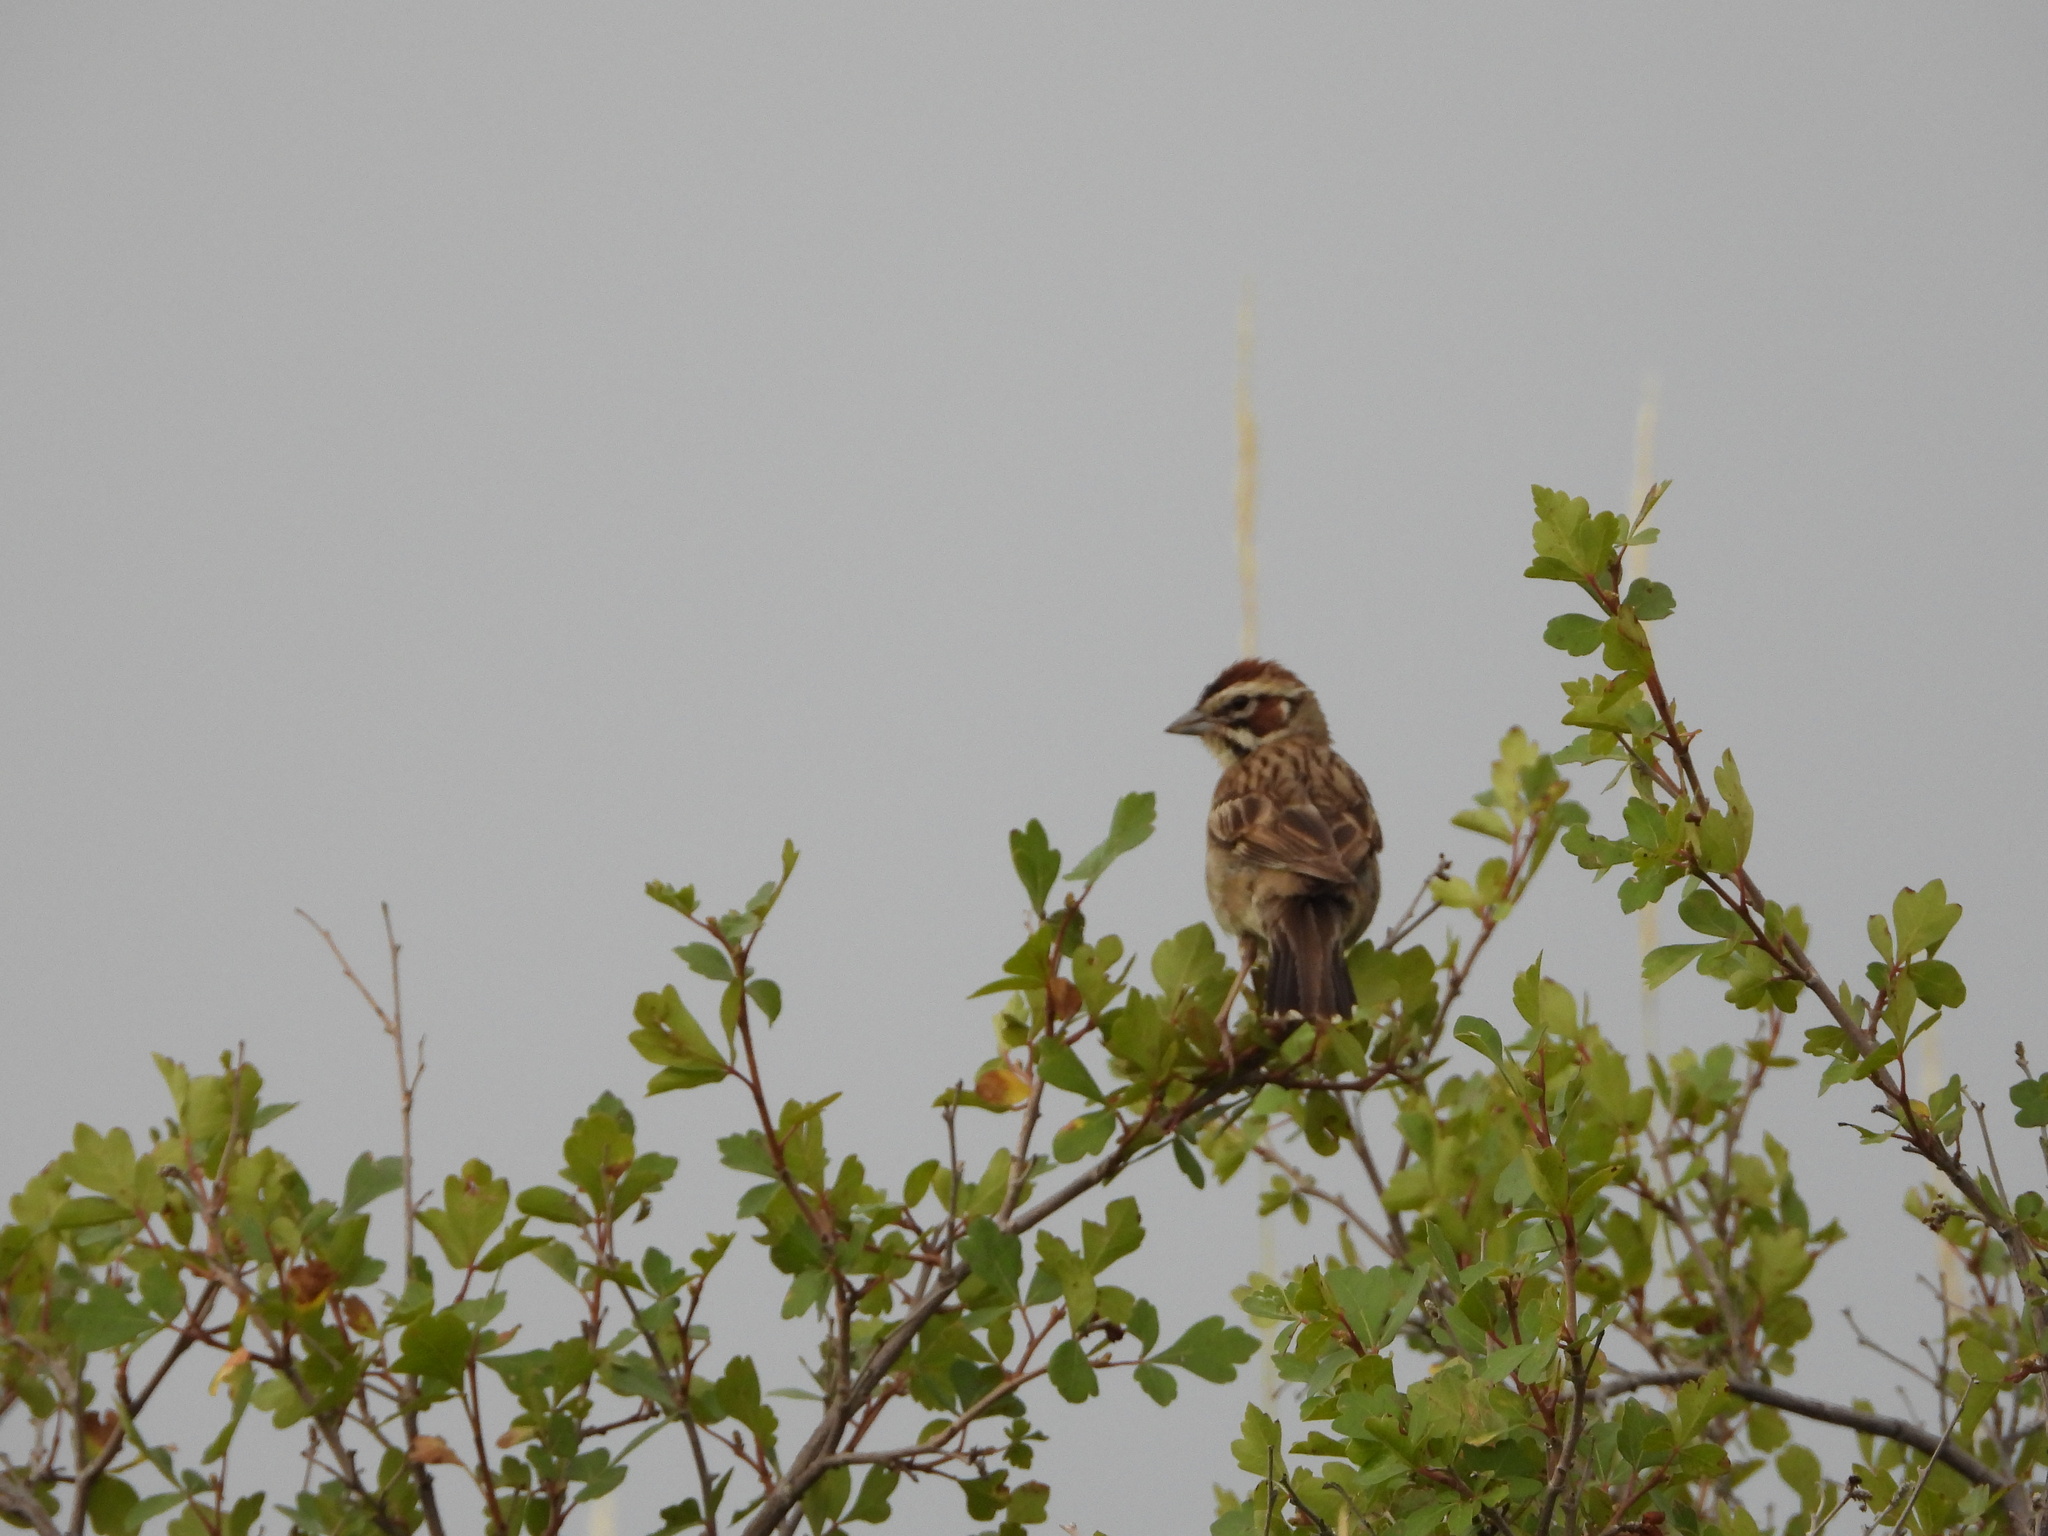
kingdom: Animalia
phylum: Chordata
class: Aves
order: Passeriformes
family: Passerellidae
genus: Chondestes
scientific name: Chondestes grammacus
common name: Lark sparrow
